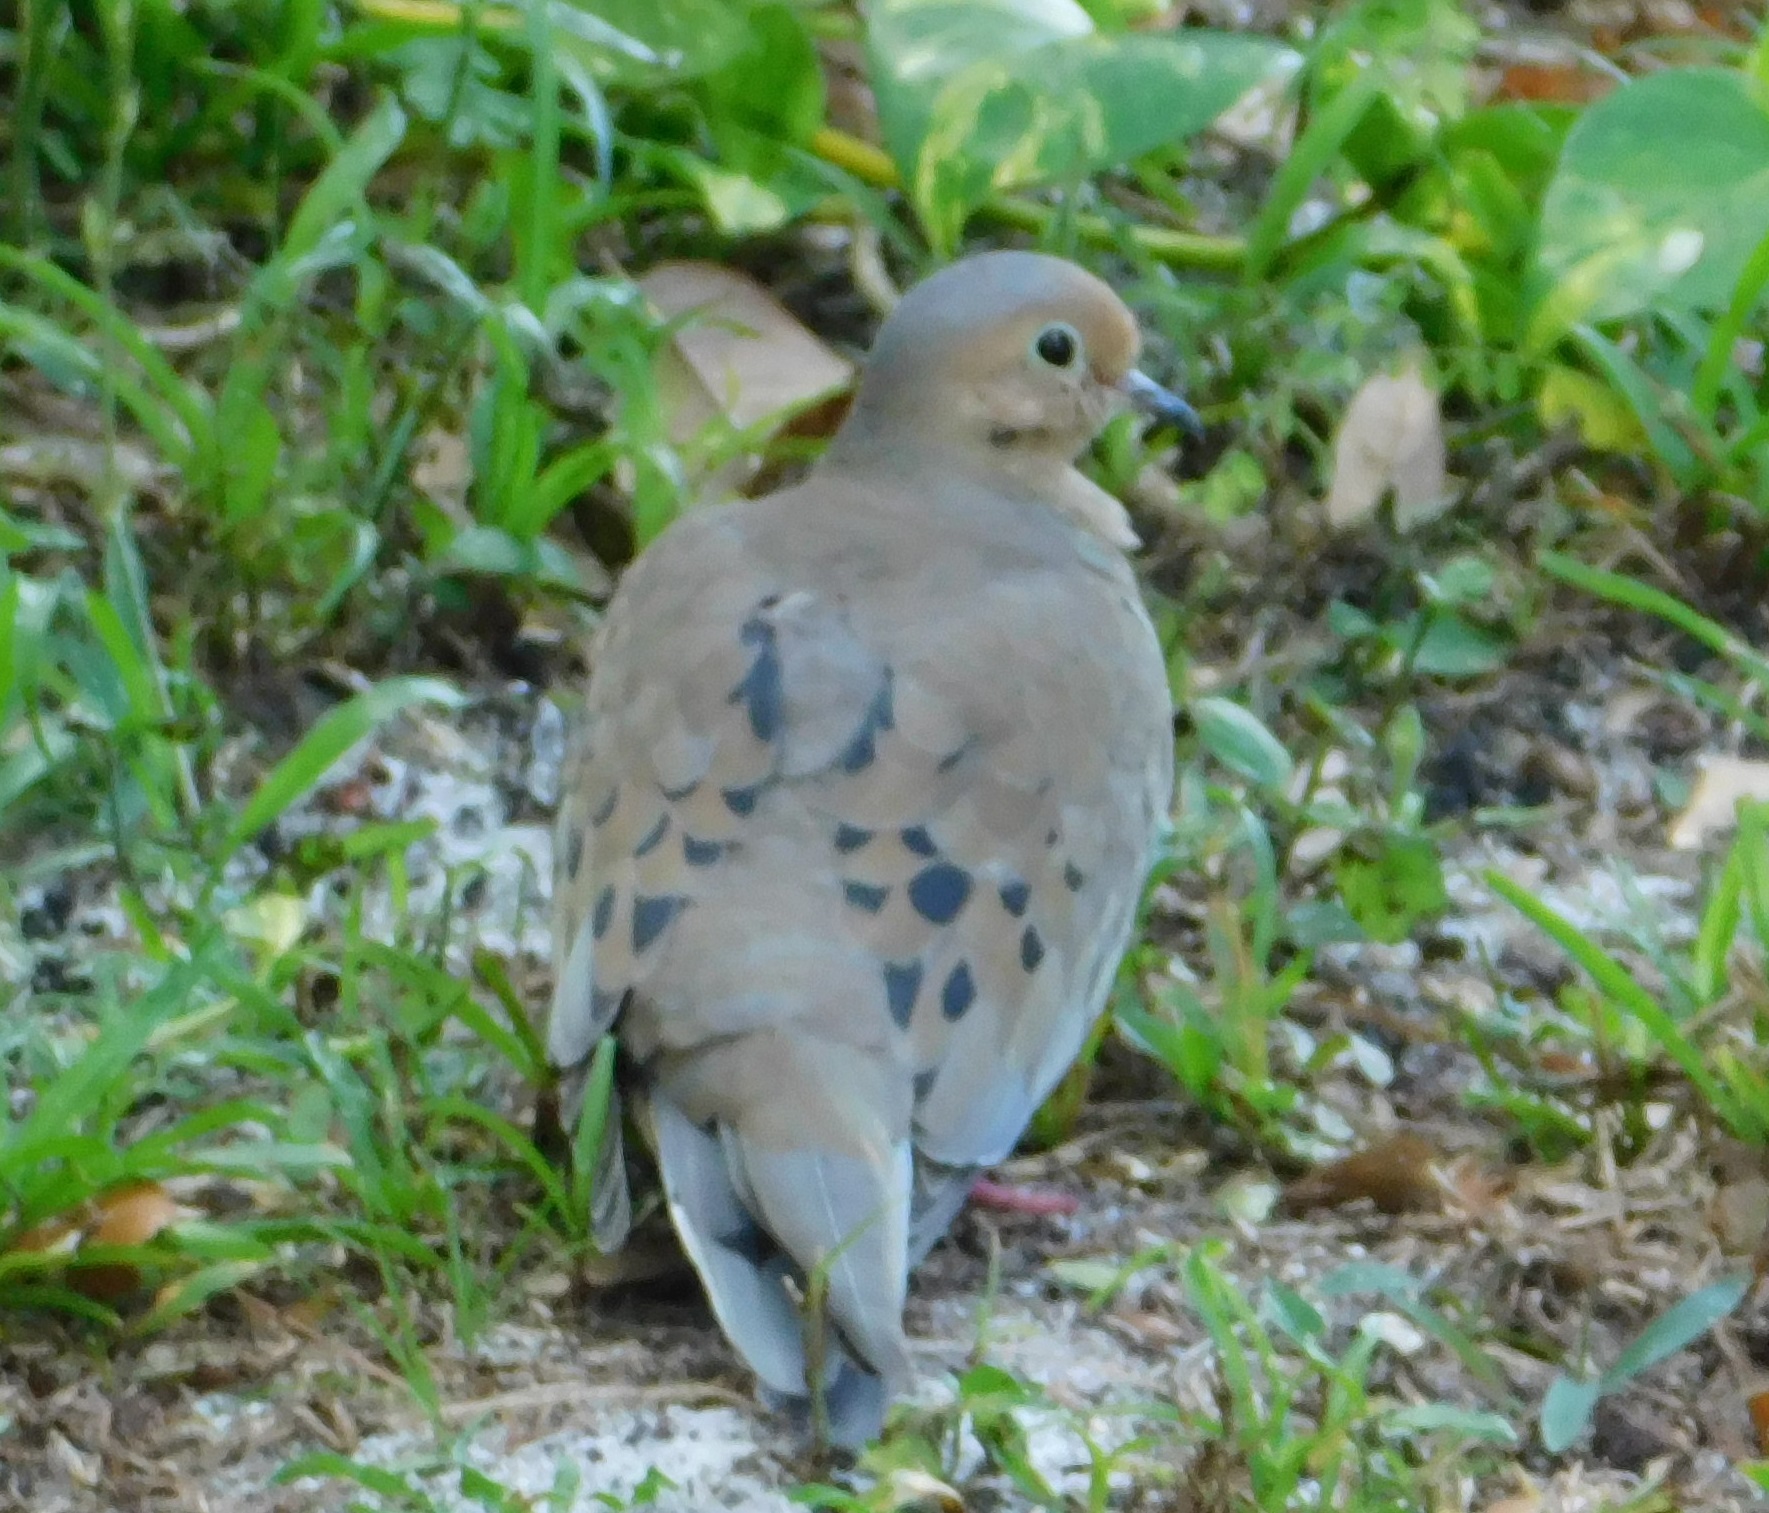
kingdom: Animalia
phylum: Chordata
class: Aves
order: Columbiformes
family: Columbidae
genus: Zenaida
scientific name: Zenaida macroura
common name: Mourning dove
